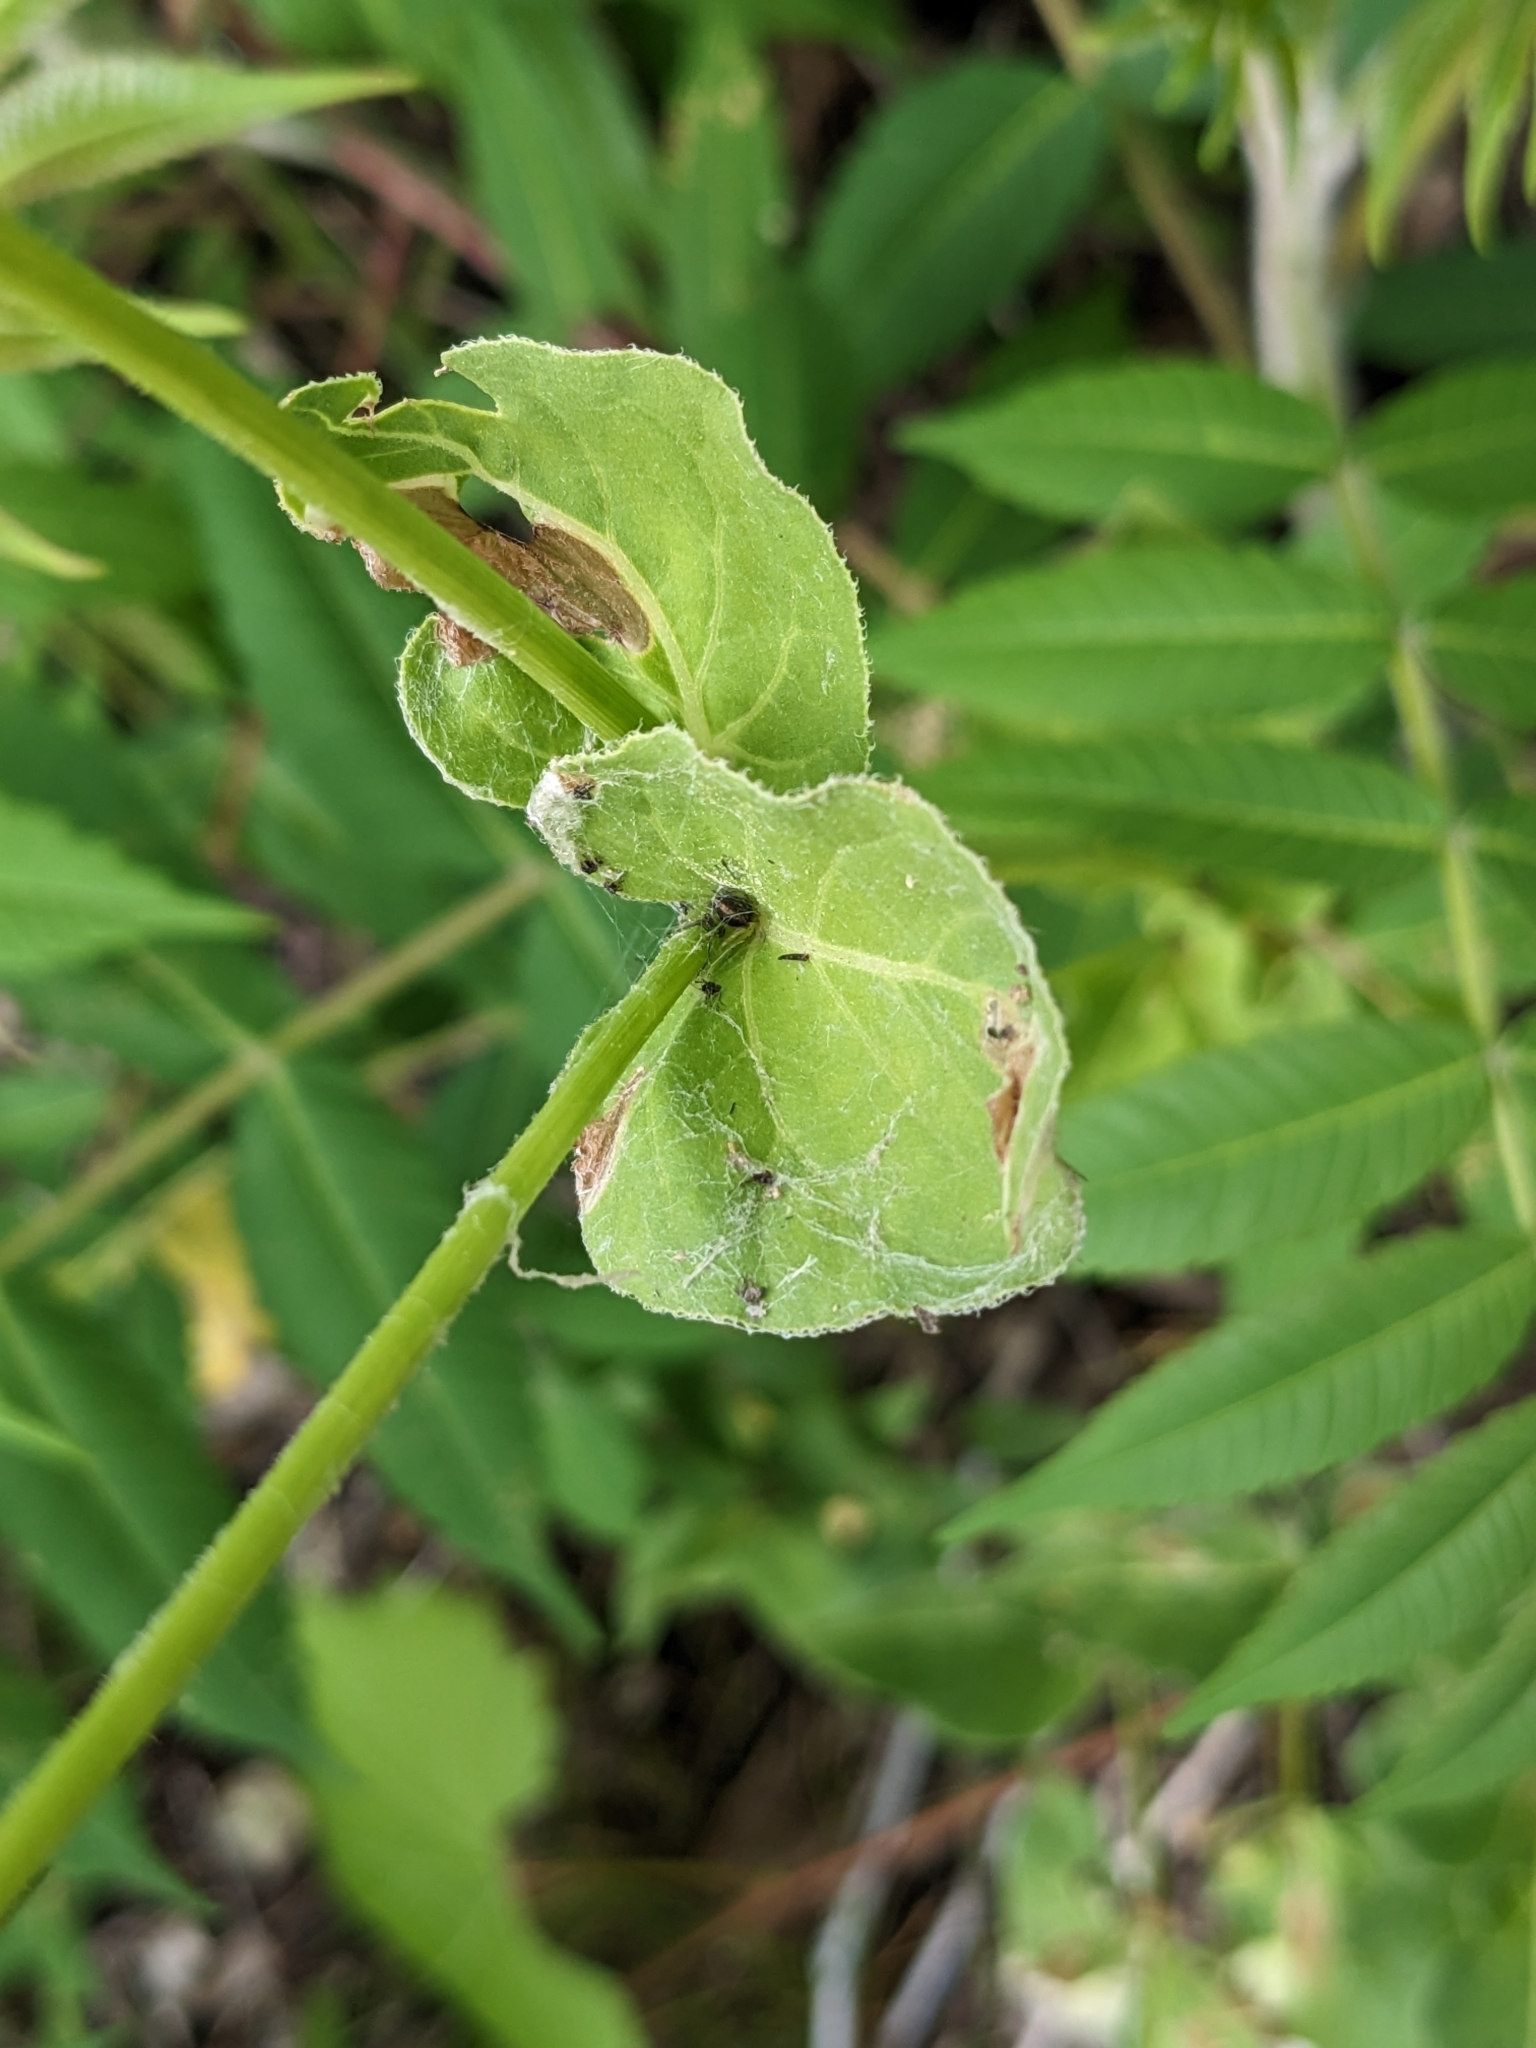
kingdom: Plantae
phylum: Tracheophyta
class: Magnoliopsida
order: Caryophyllales
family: Nyctaginaceae
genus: Mirabilis
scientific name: Mirabilis nyctaginea
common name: Umbrella wort
